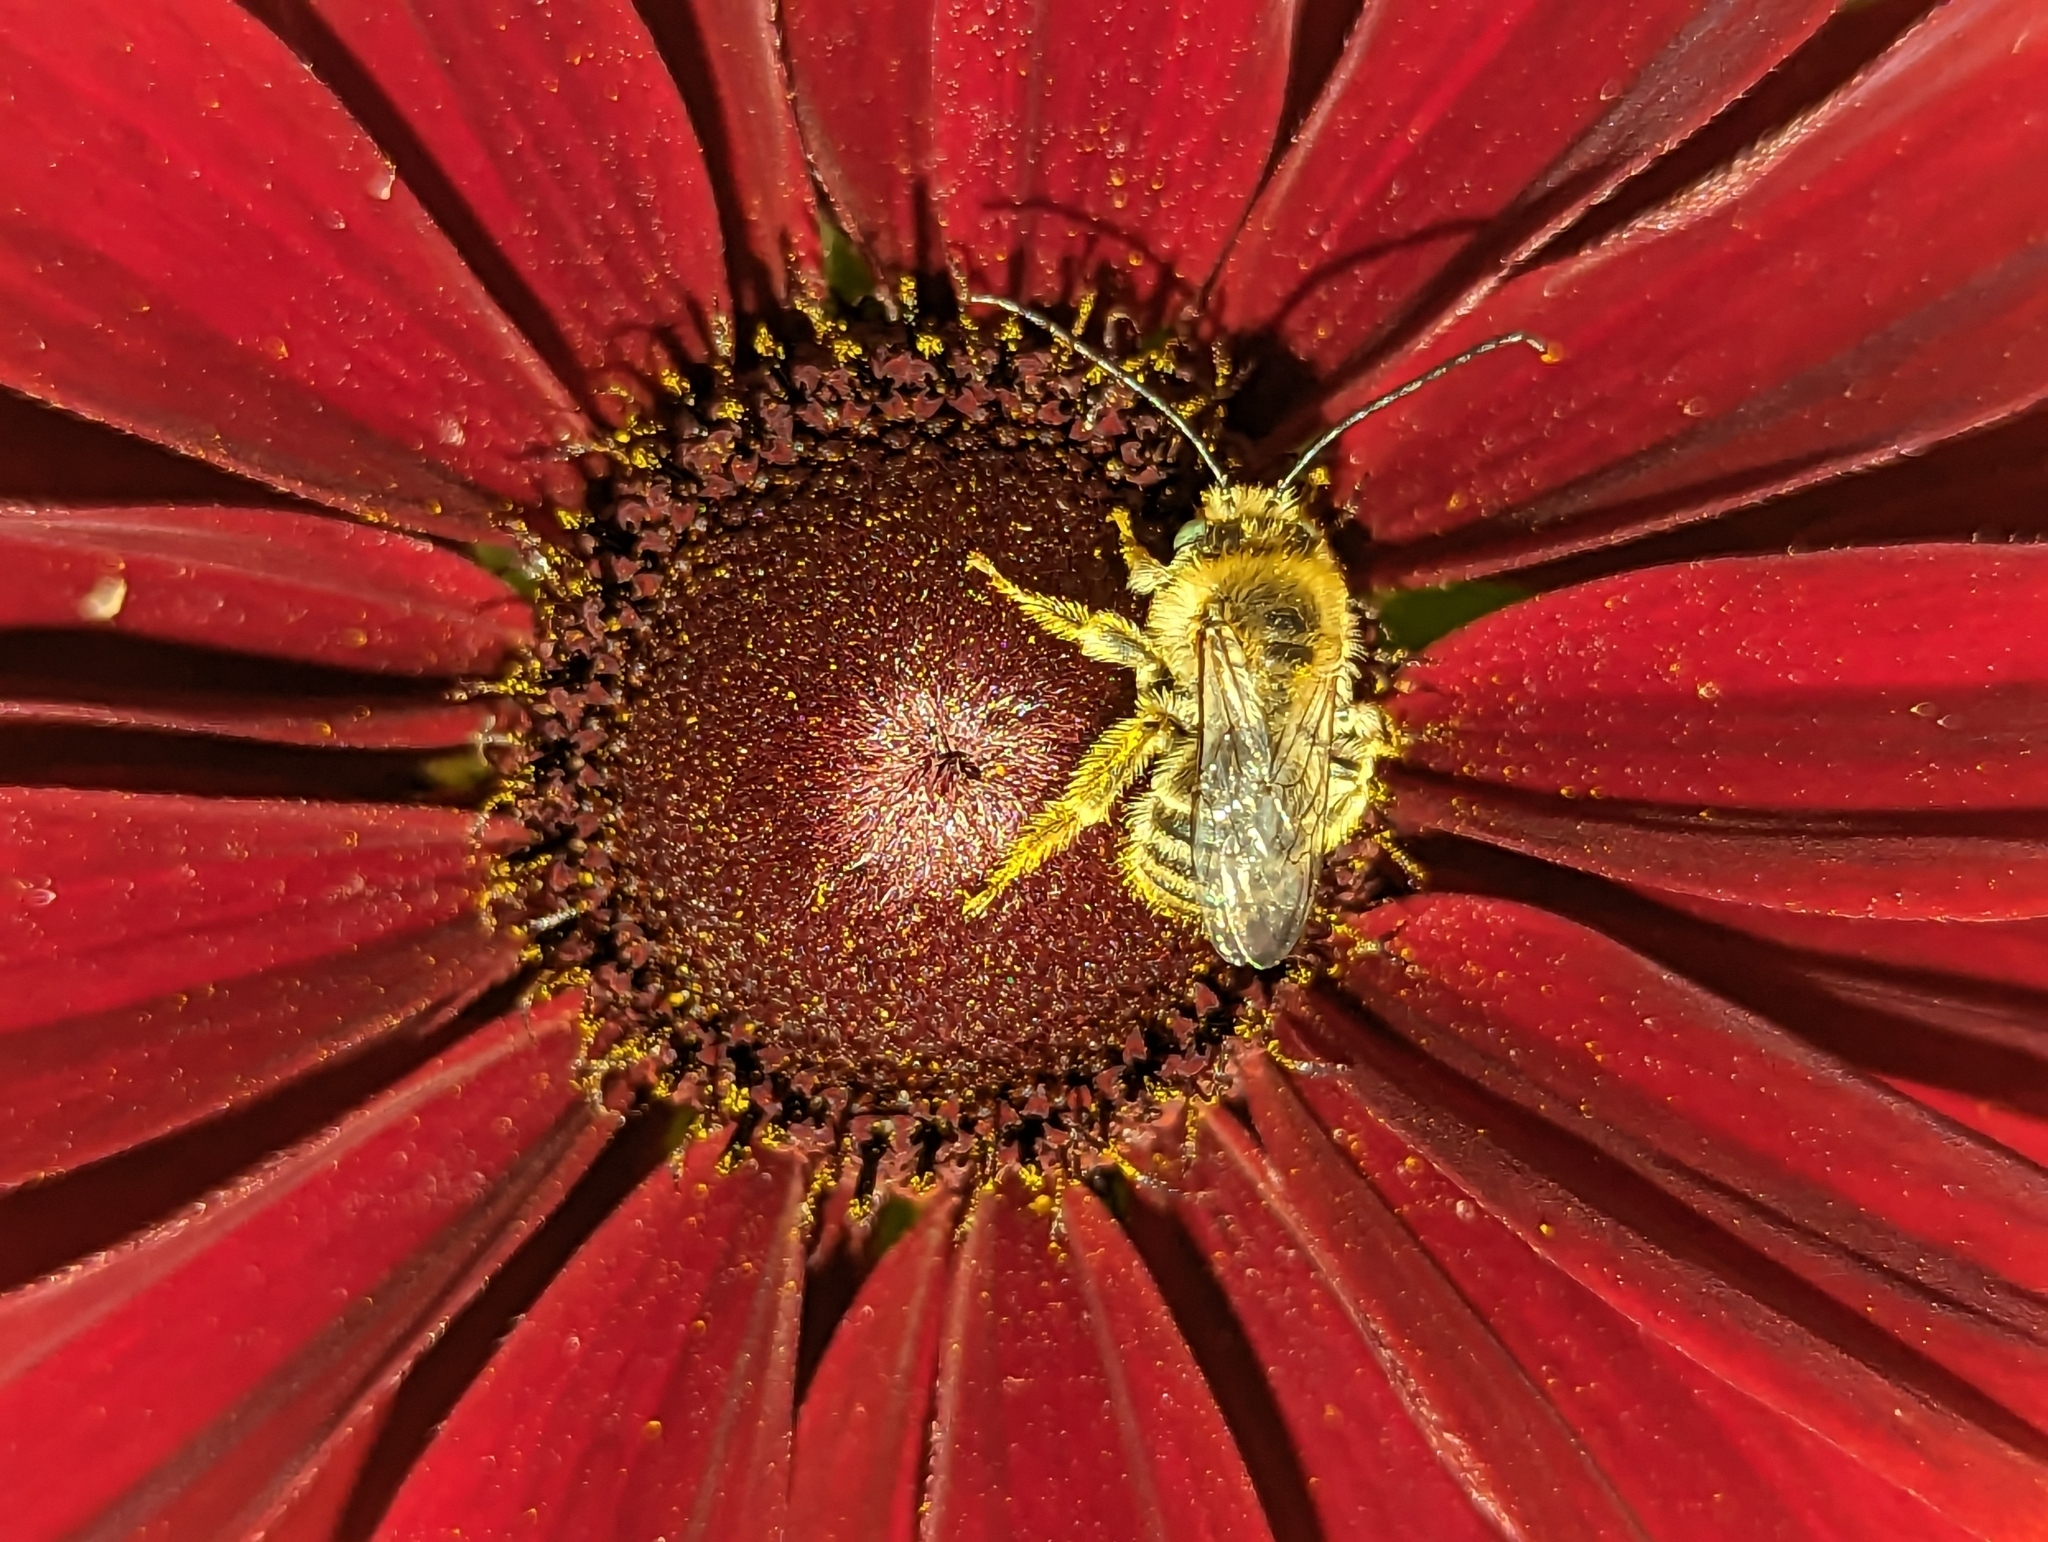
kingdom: Animalia
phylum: Arthropoda
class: Insecta
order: Hymenoptera
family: Apidae
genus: Melissodes
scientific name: Melissodes druriellus
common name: Drury's long-horned bee
